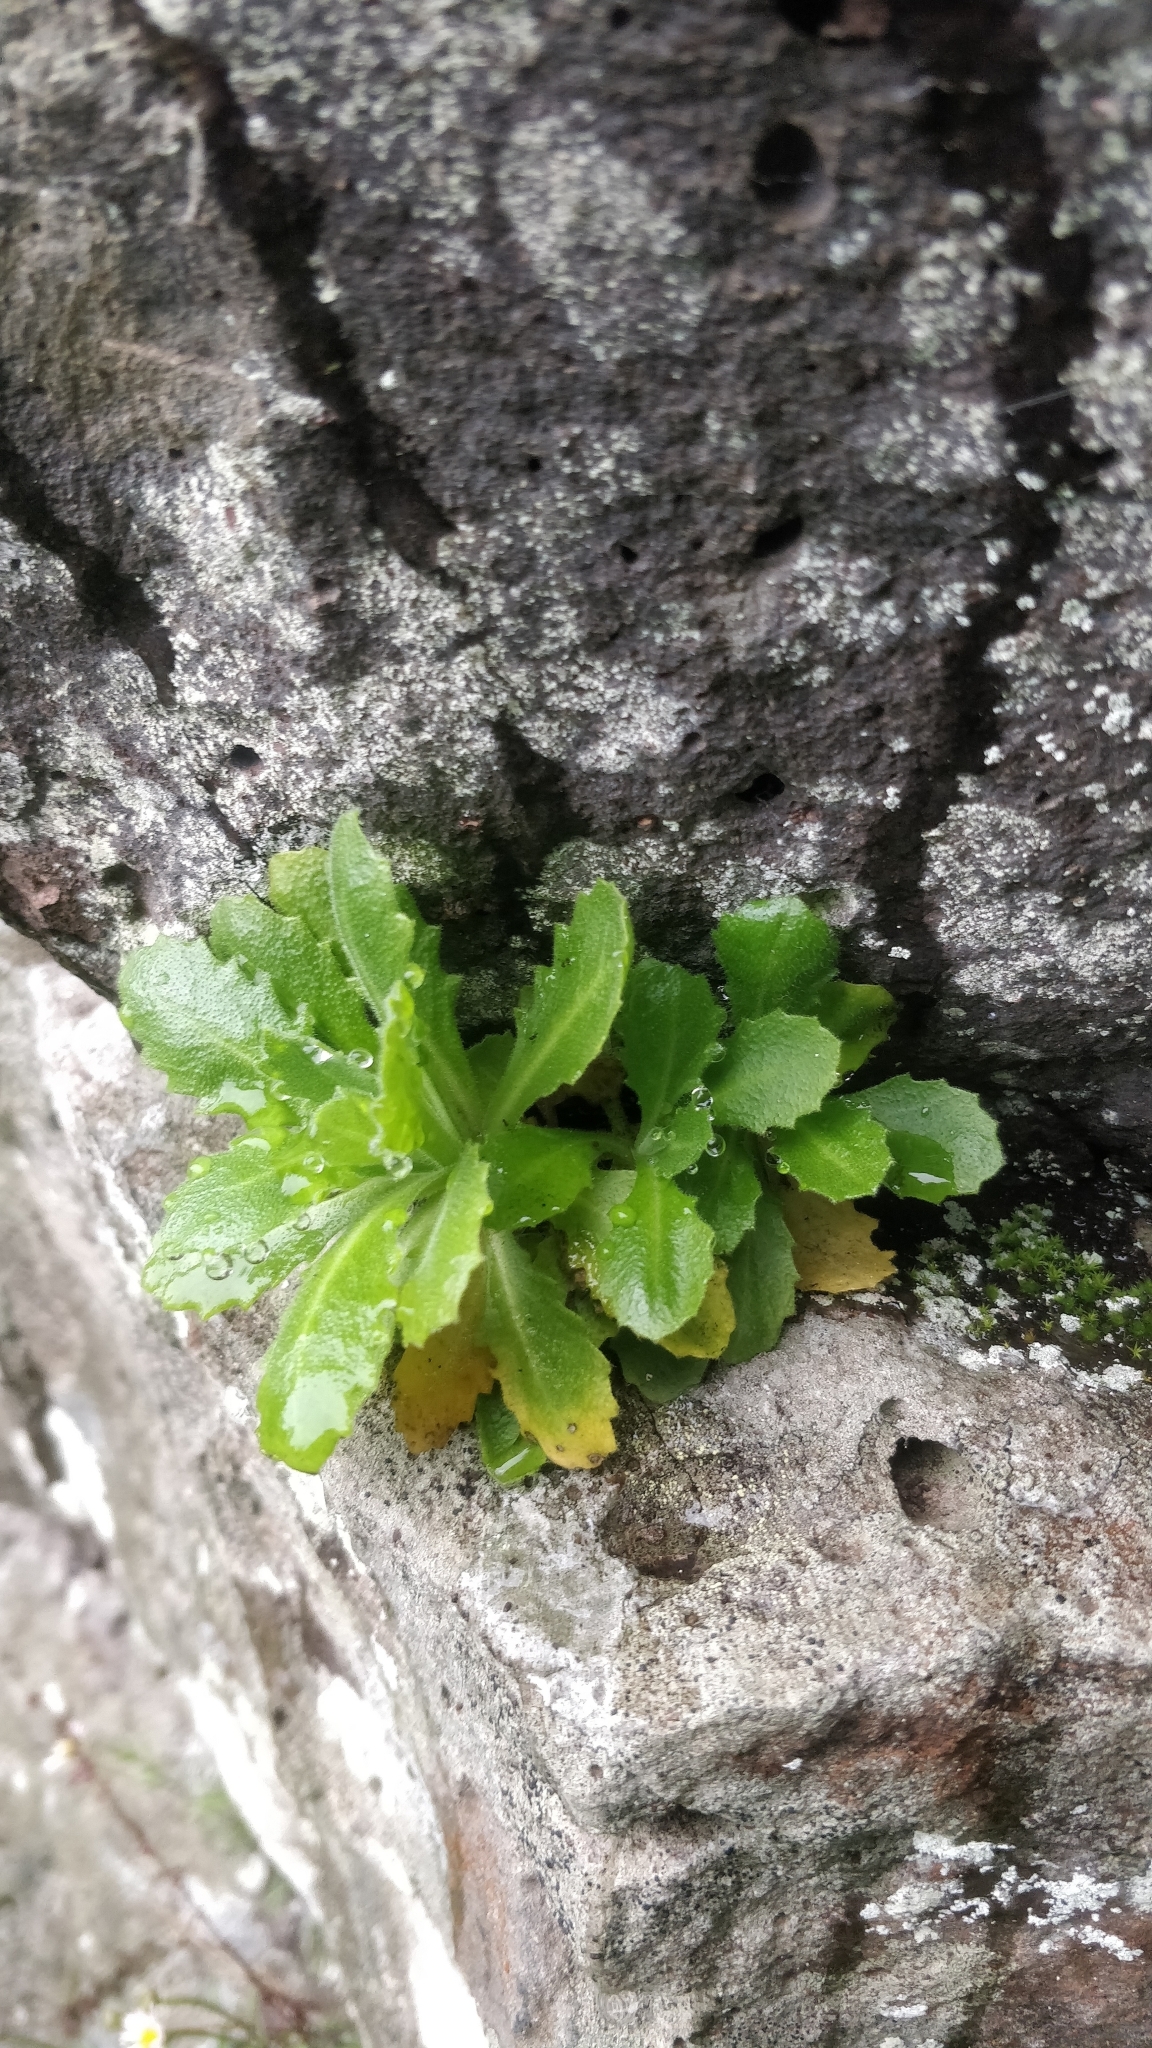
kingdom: Plantae
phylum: Tracheophyta
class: Magnoliopsida
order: Brassicales
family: Brassicaceae
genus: Arabis
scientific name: Arabis alpina
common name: Alpine rock-cress
